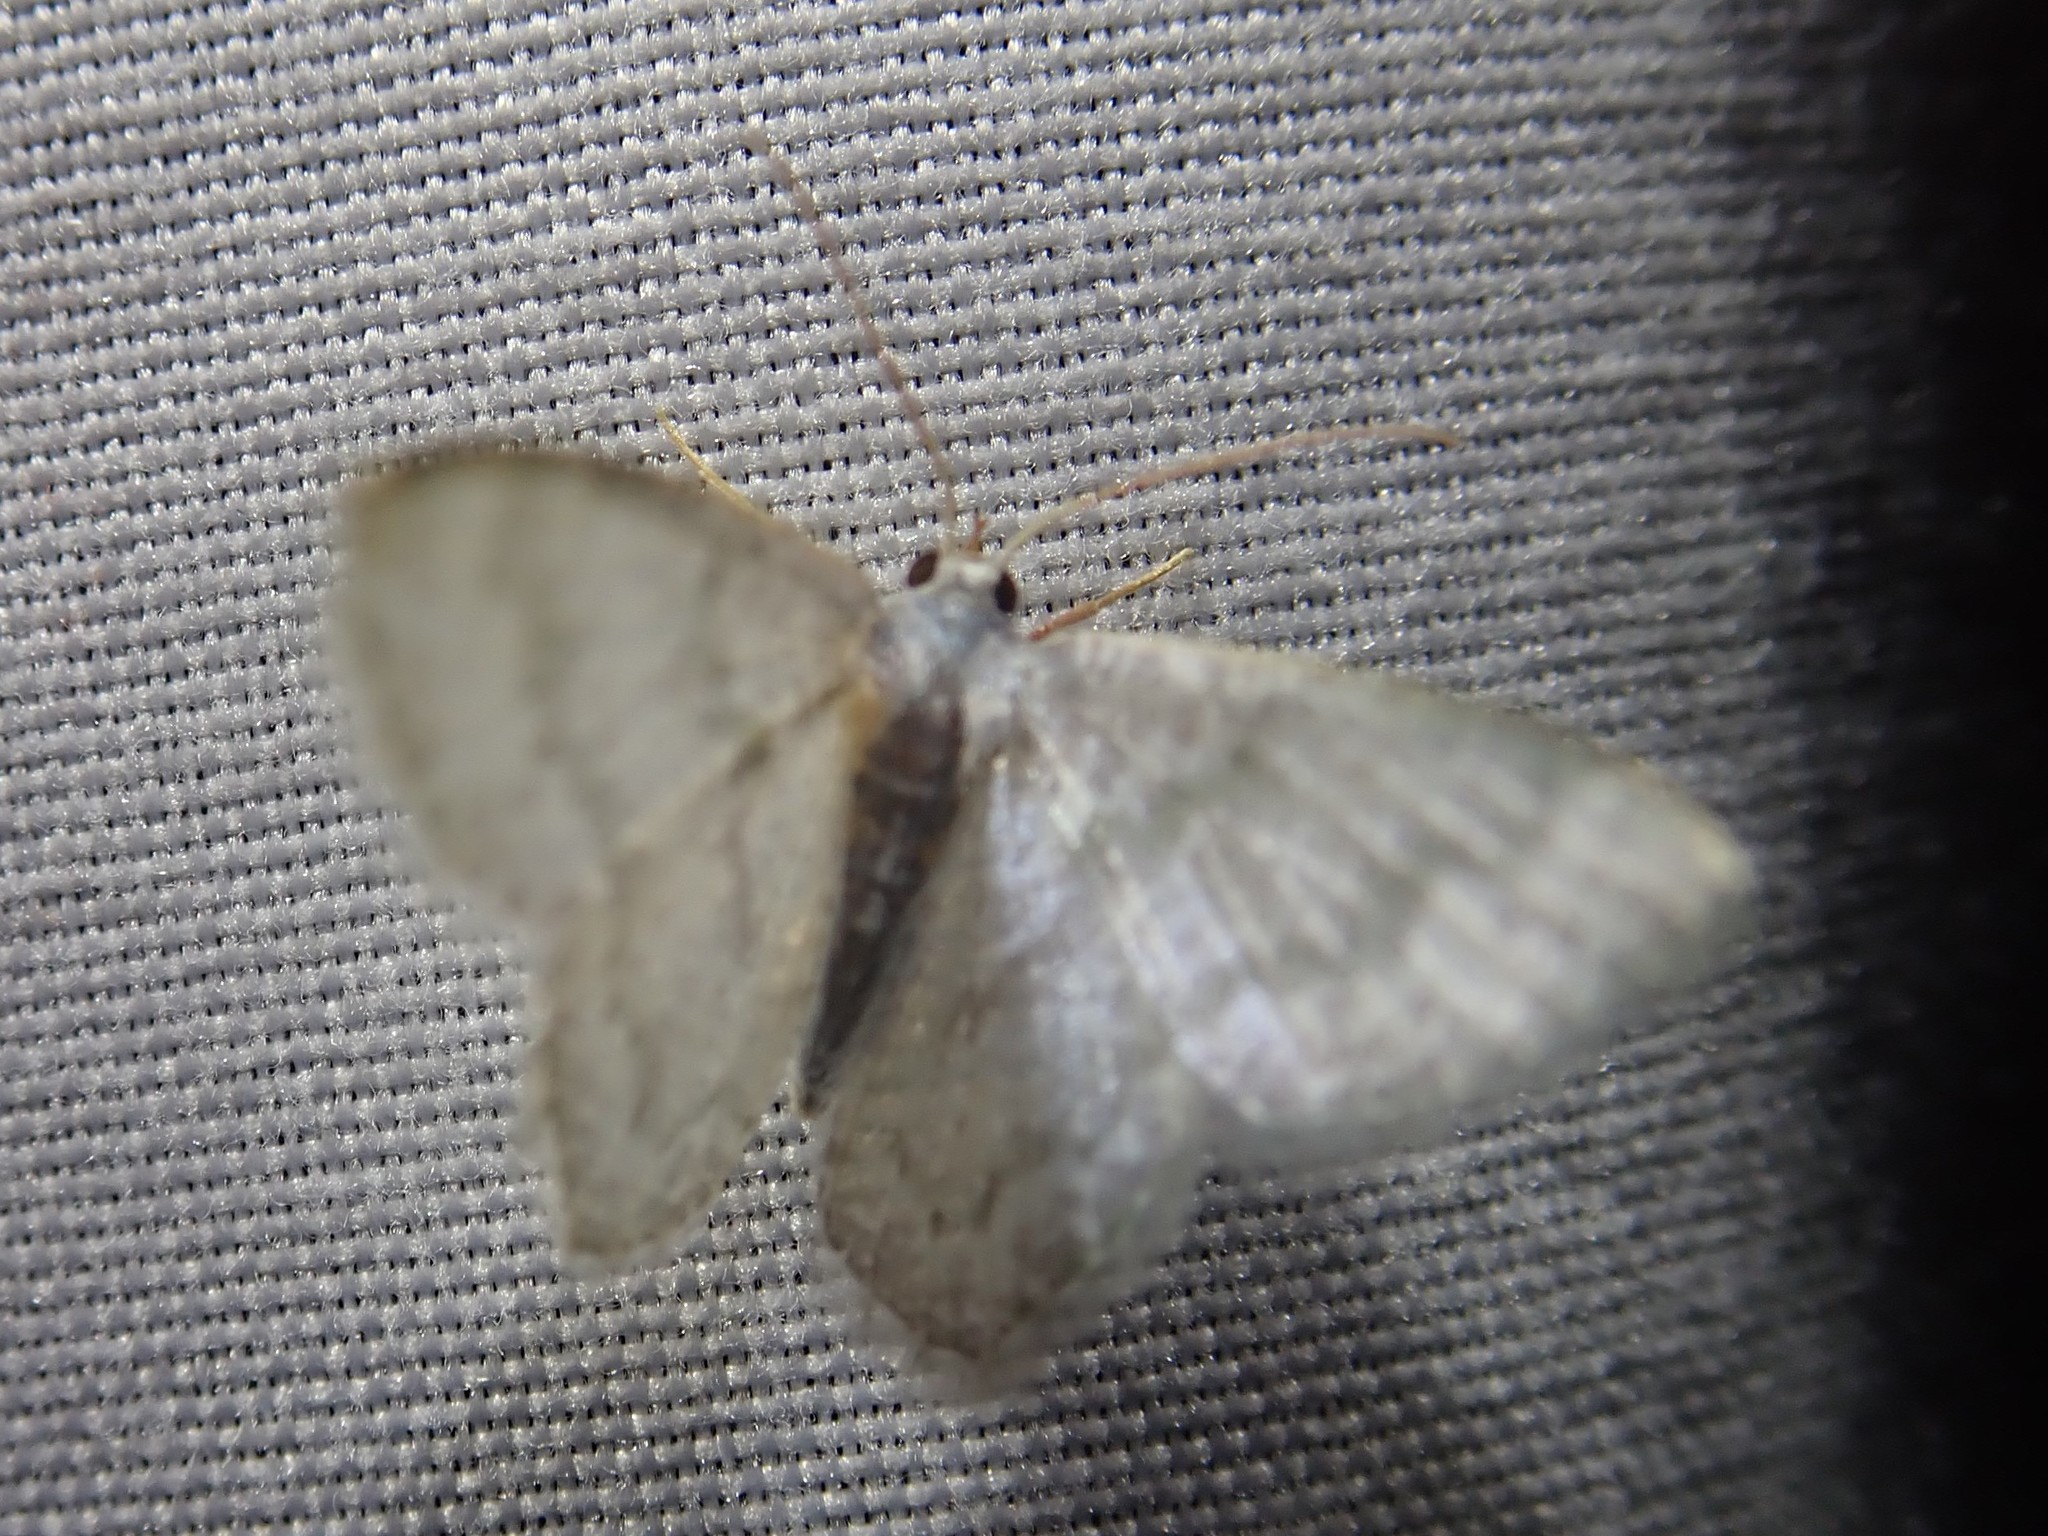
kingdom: Animalia
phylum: Arthropoda
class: Insecta
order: Lepidoptera
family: Geometridae
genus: Chloropteryx
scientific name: Chloropteryx opalaria
